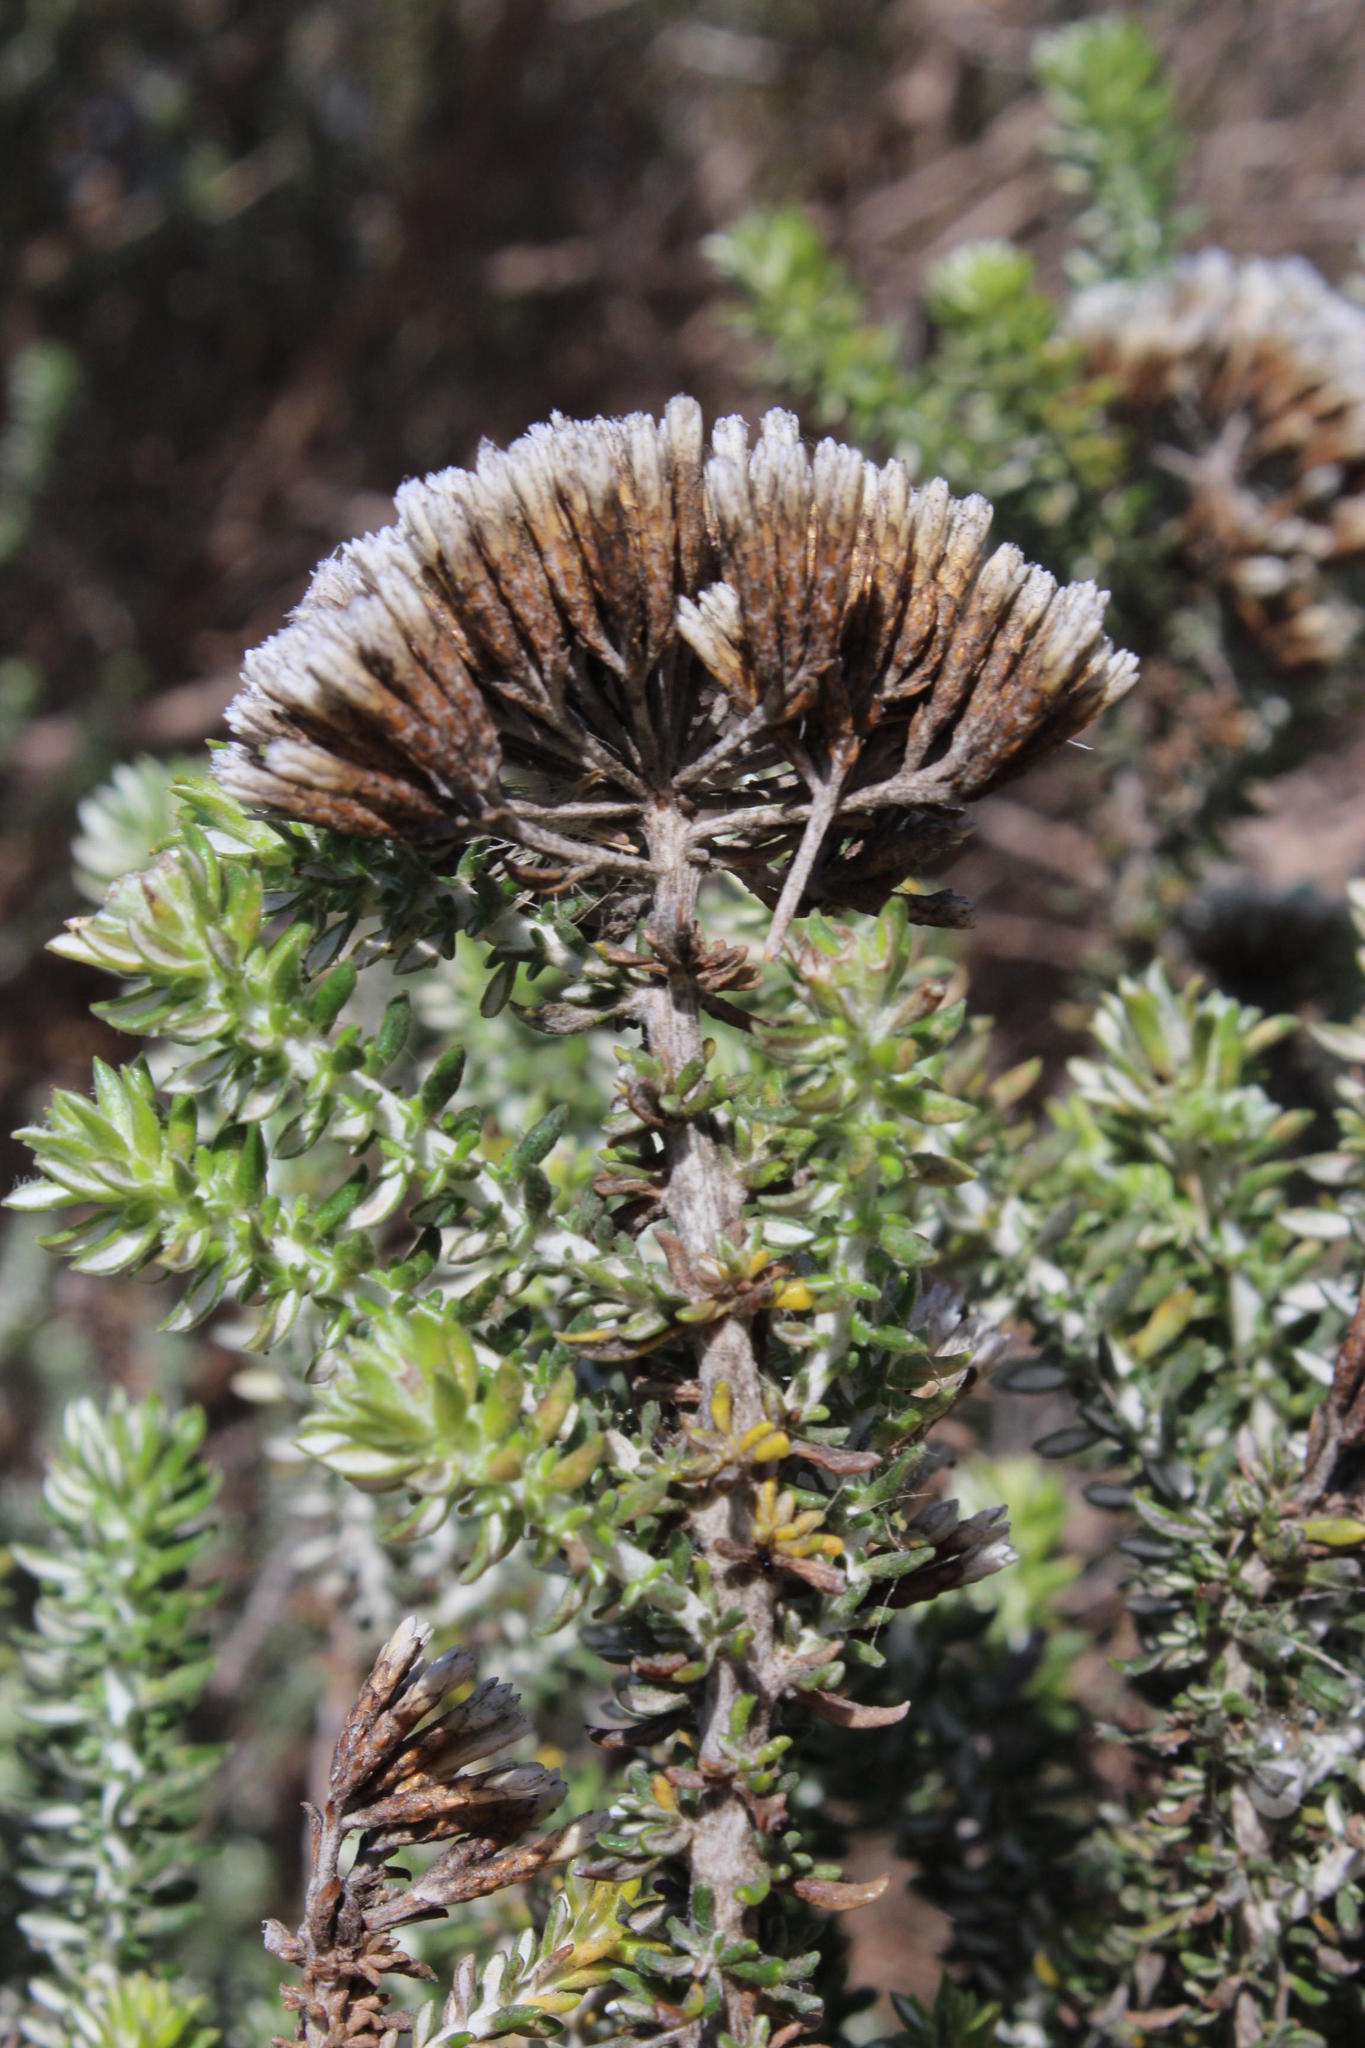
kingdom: Plantae
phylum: Tracheophyta
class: Magnoliopsida
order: Asterales
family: Asteraceae
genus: Metalasia
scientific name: Metalasia muricata
